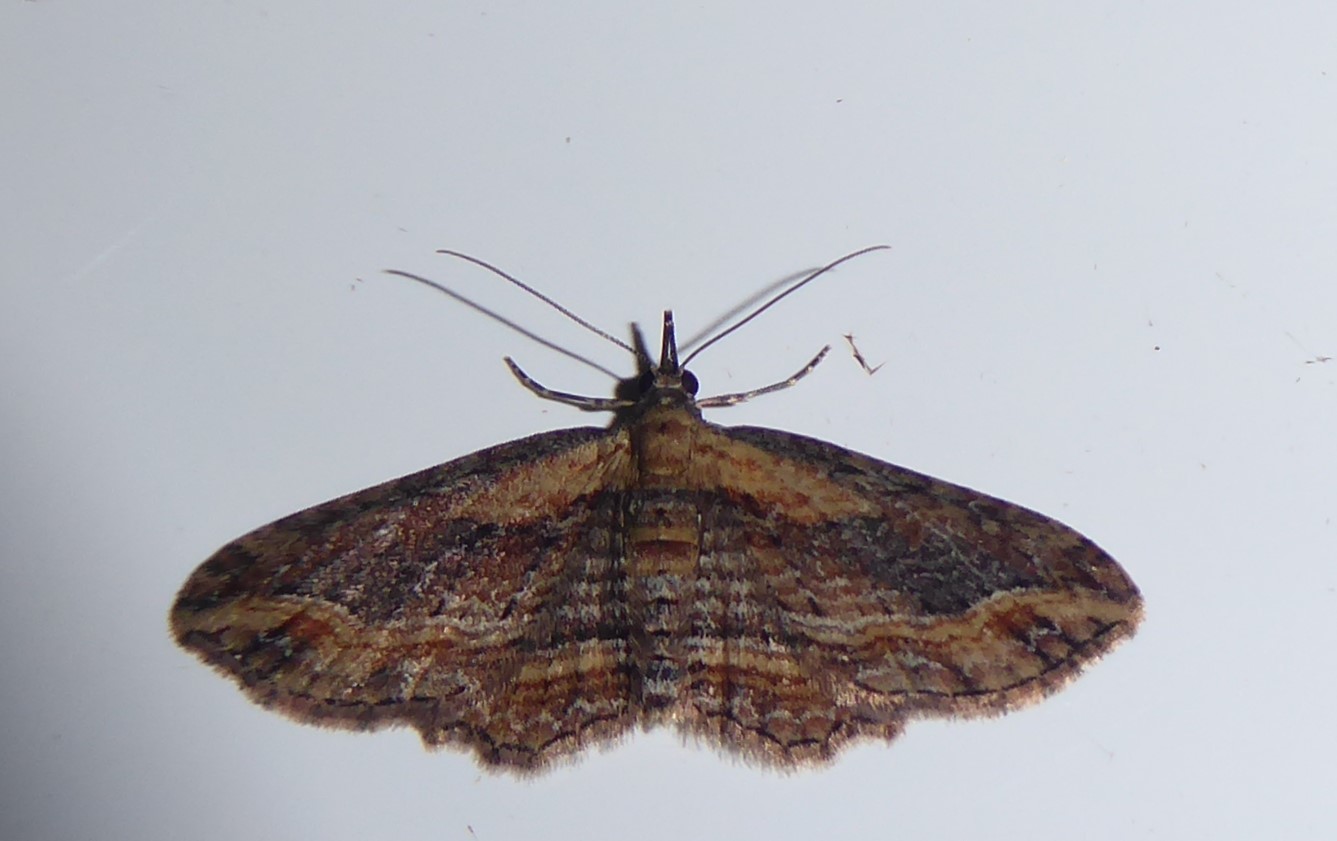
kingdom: Animalia
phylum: Arthropoda
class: Insecta
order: Lepidoptera
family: Geometridae
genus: Chloroclystis
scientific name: Chloroclystis filata
